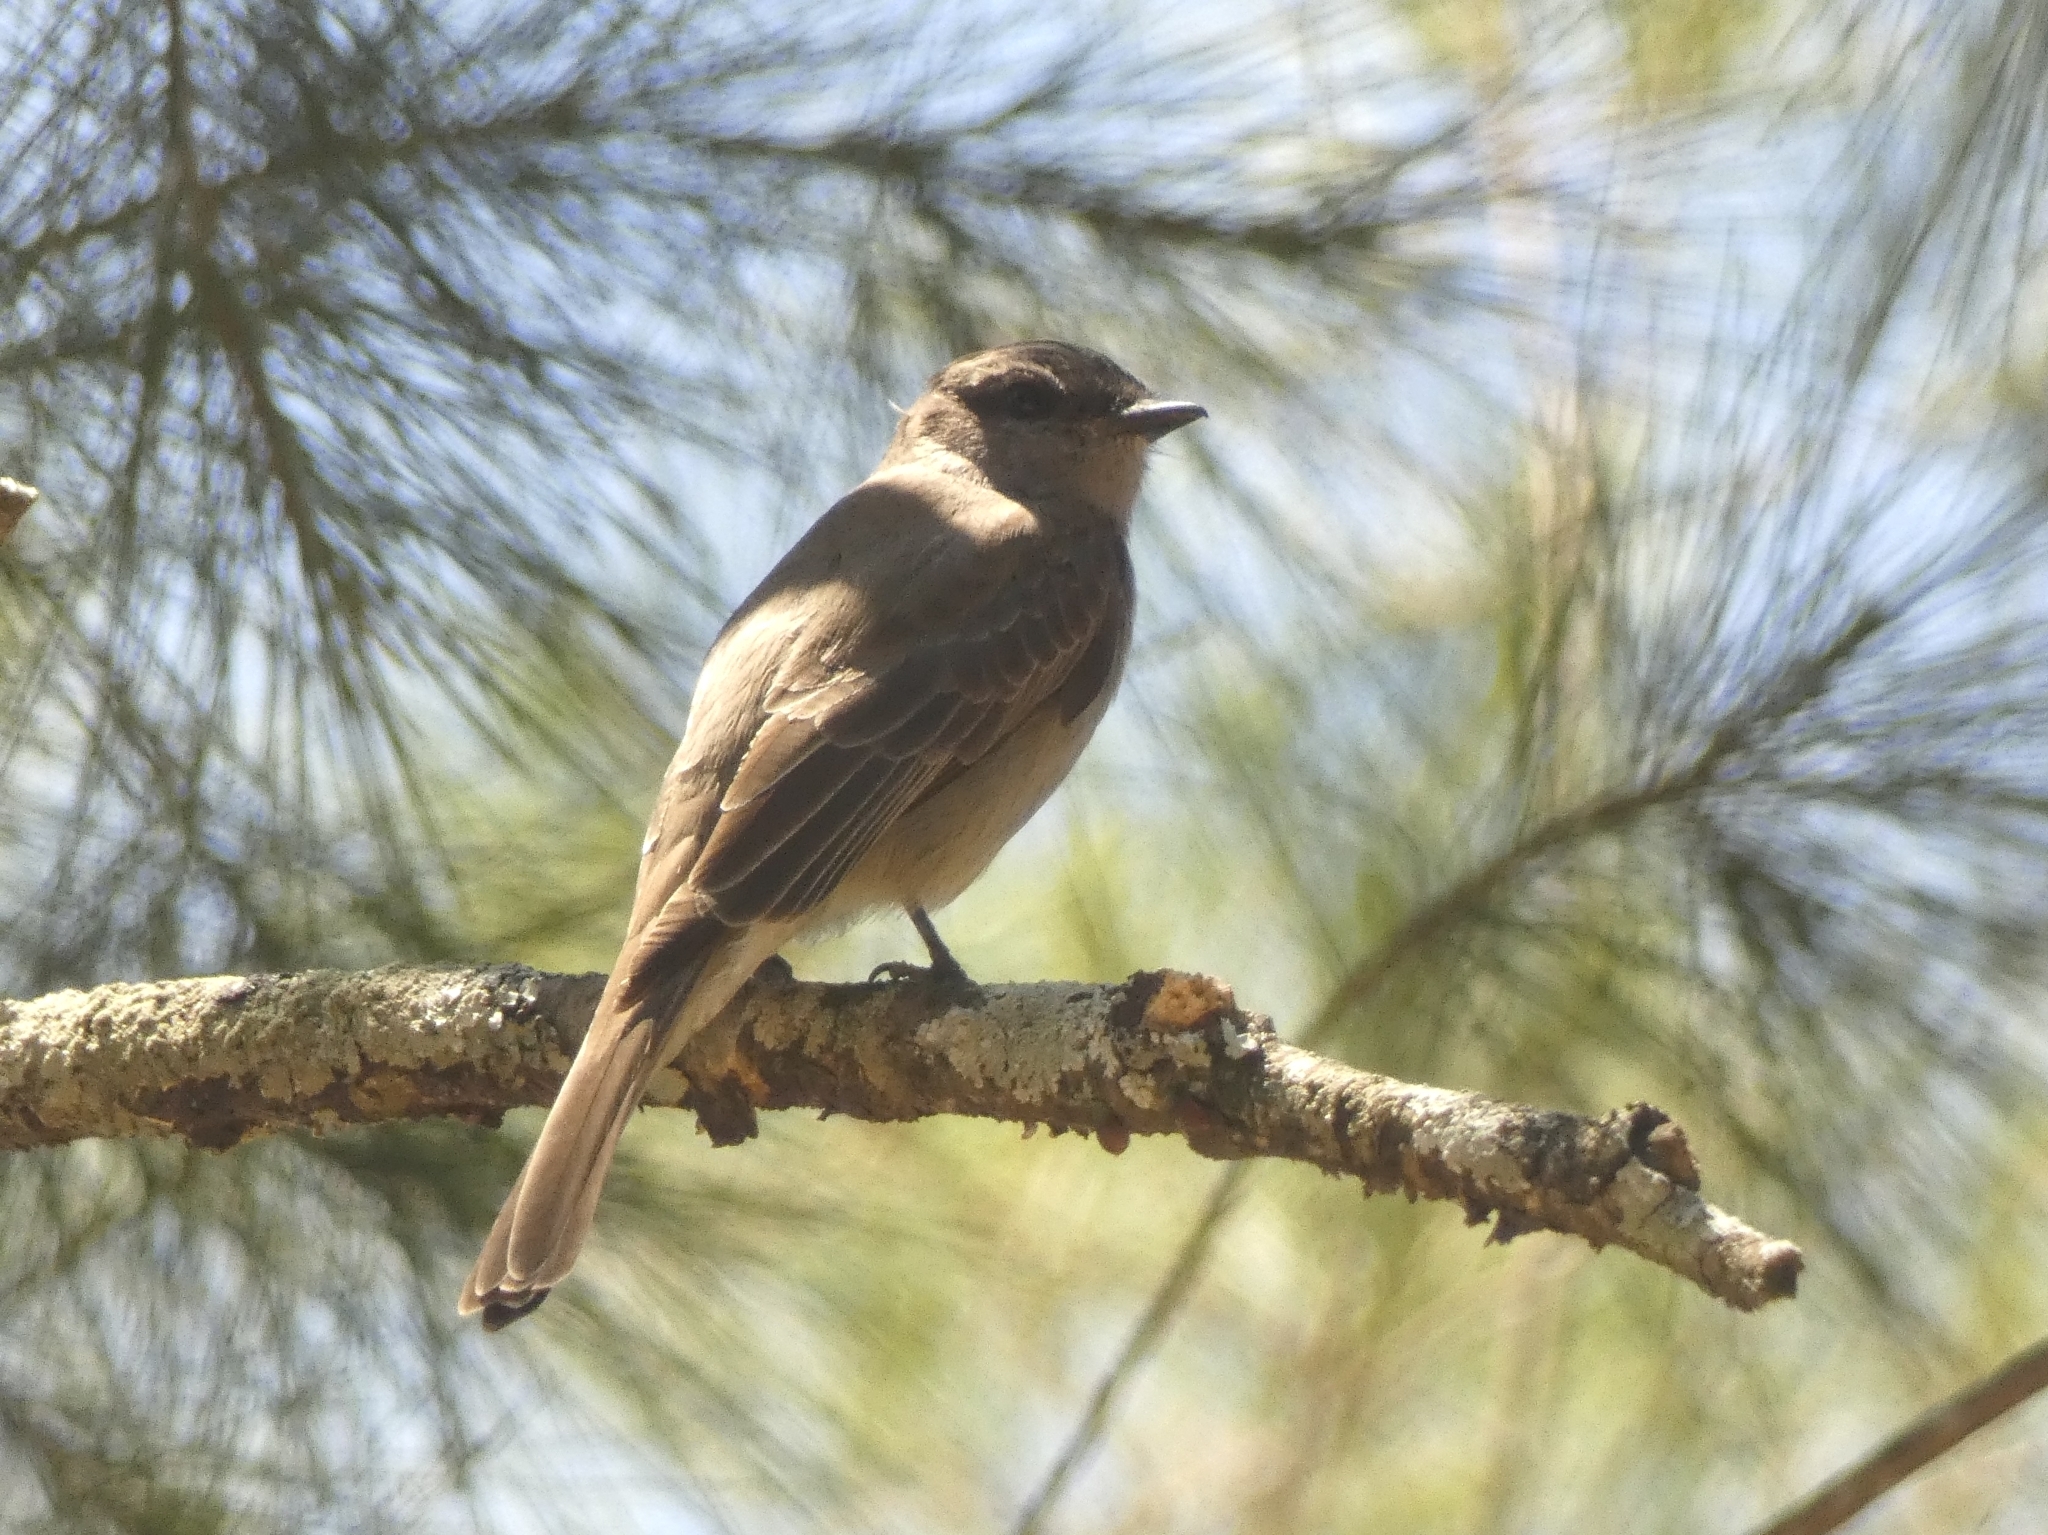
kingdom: Animalia
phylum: Chordata
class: Aves
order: Passeriformes
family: Tyrannidae
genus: Empidonomus
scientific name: Empidonomus aurantioatrocristatus
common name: Crowned slaty flycatcher
